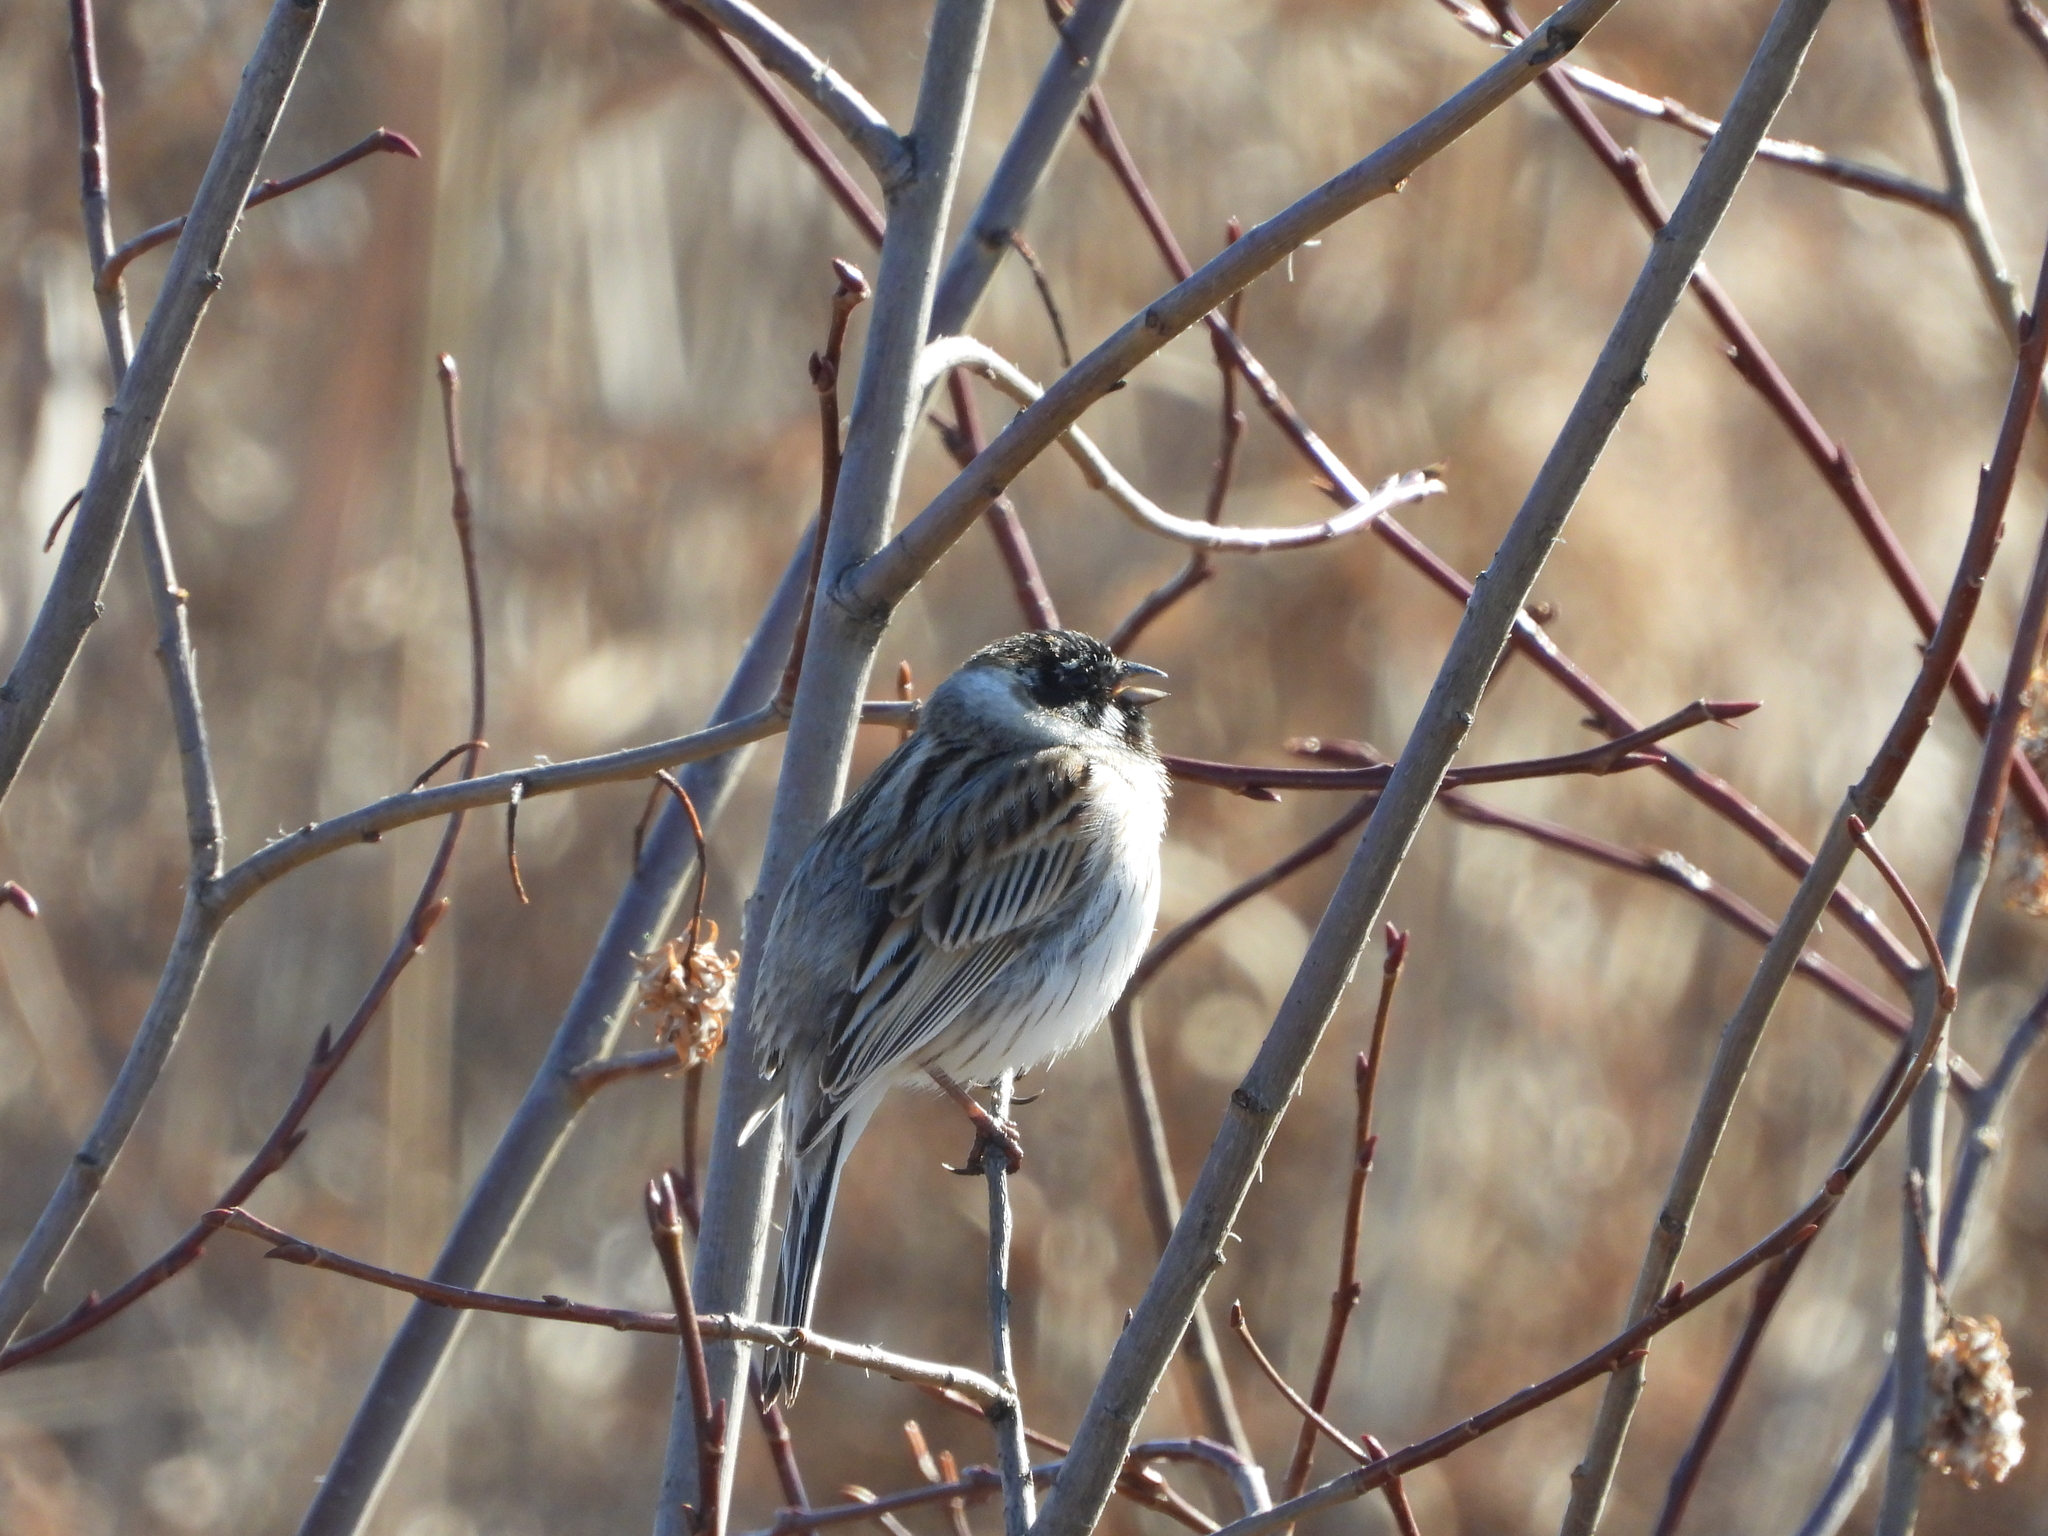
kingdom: Animalia
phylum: Chordata
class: Aves
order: Passeriformes
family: Emberizidae
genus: Emberiza
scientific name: Emberiza schoeniclus
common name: Reed bunting
